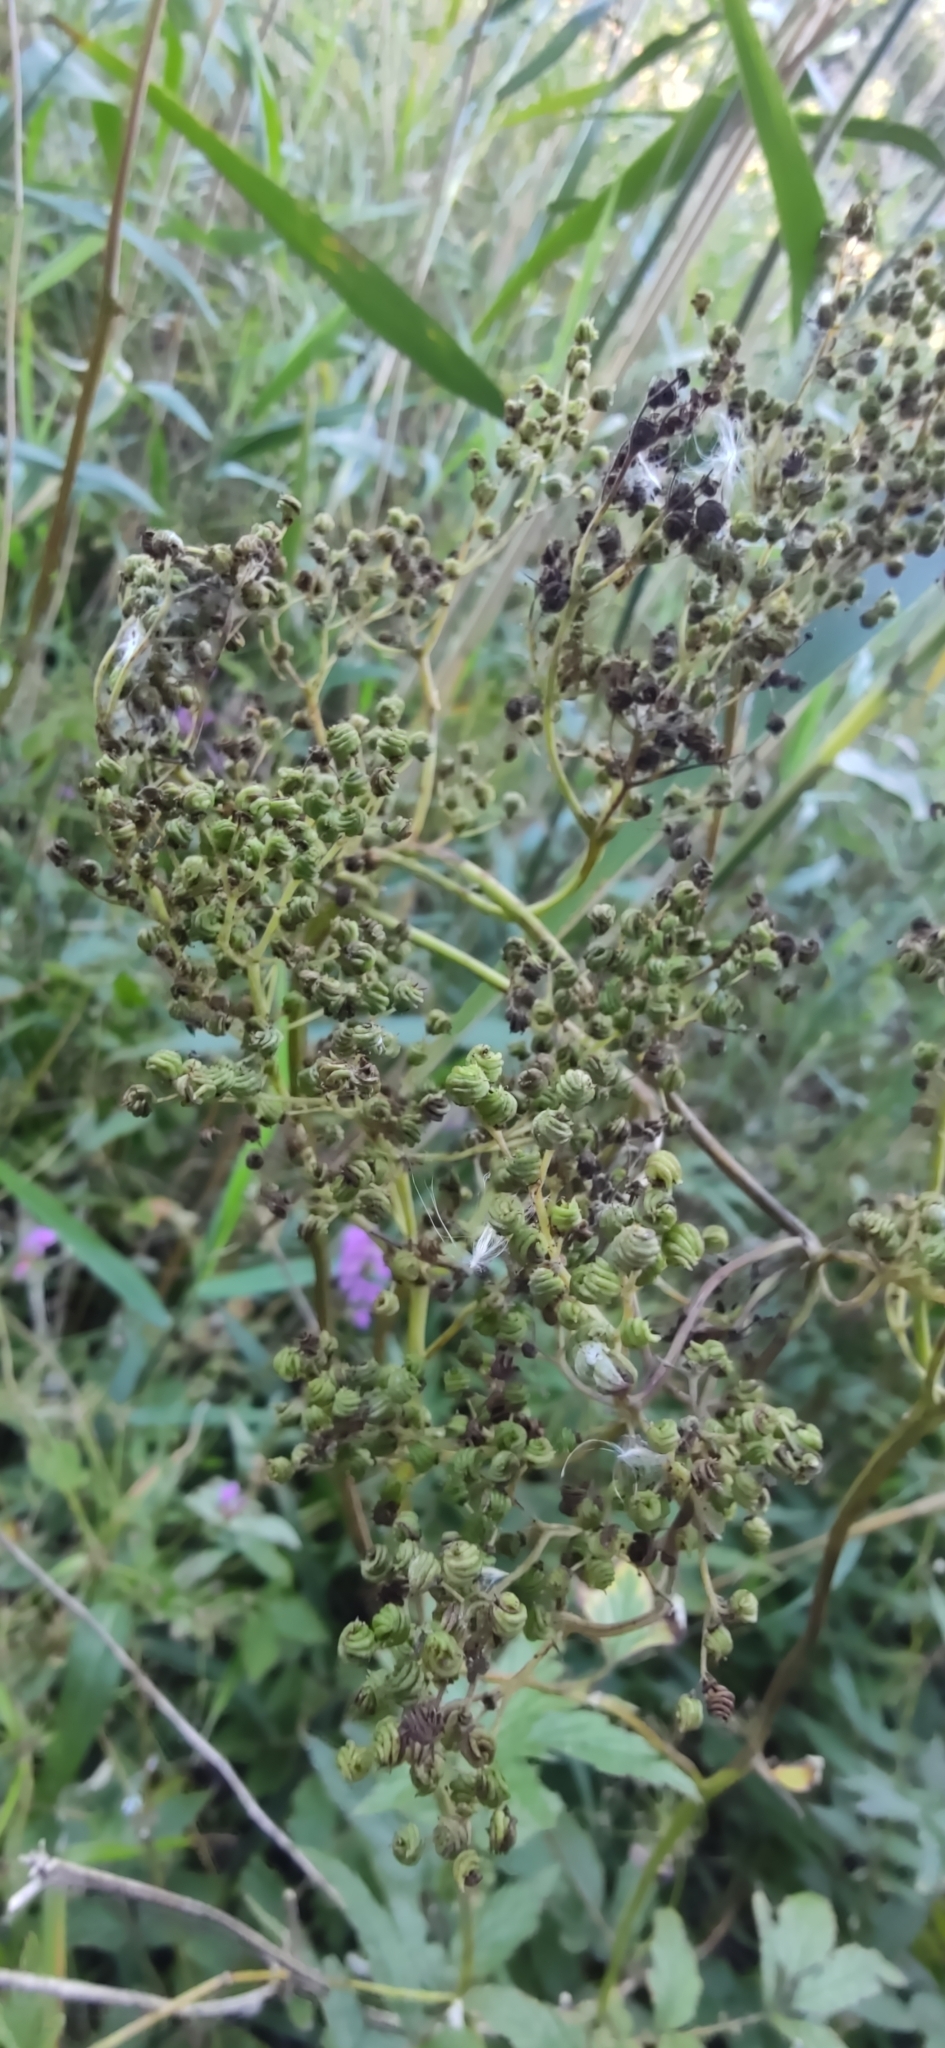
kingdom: Plantae
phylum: Tracheophyta
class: Magnoliopsida
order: Rosales
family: Rosaceae
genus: Filipendula
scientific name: Filipendula ulmaria
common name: Meadowsweet
